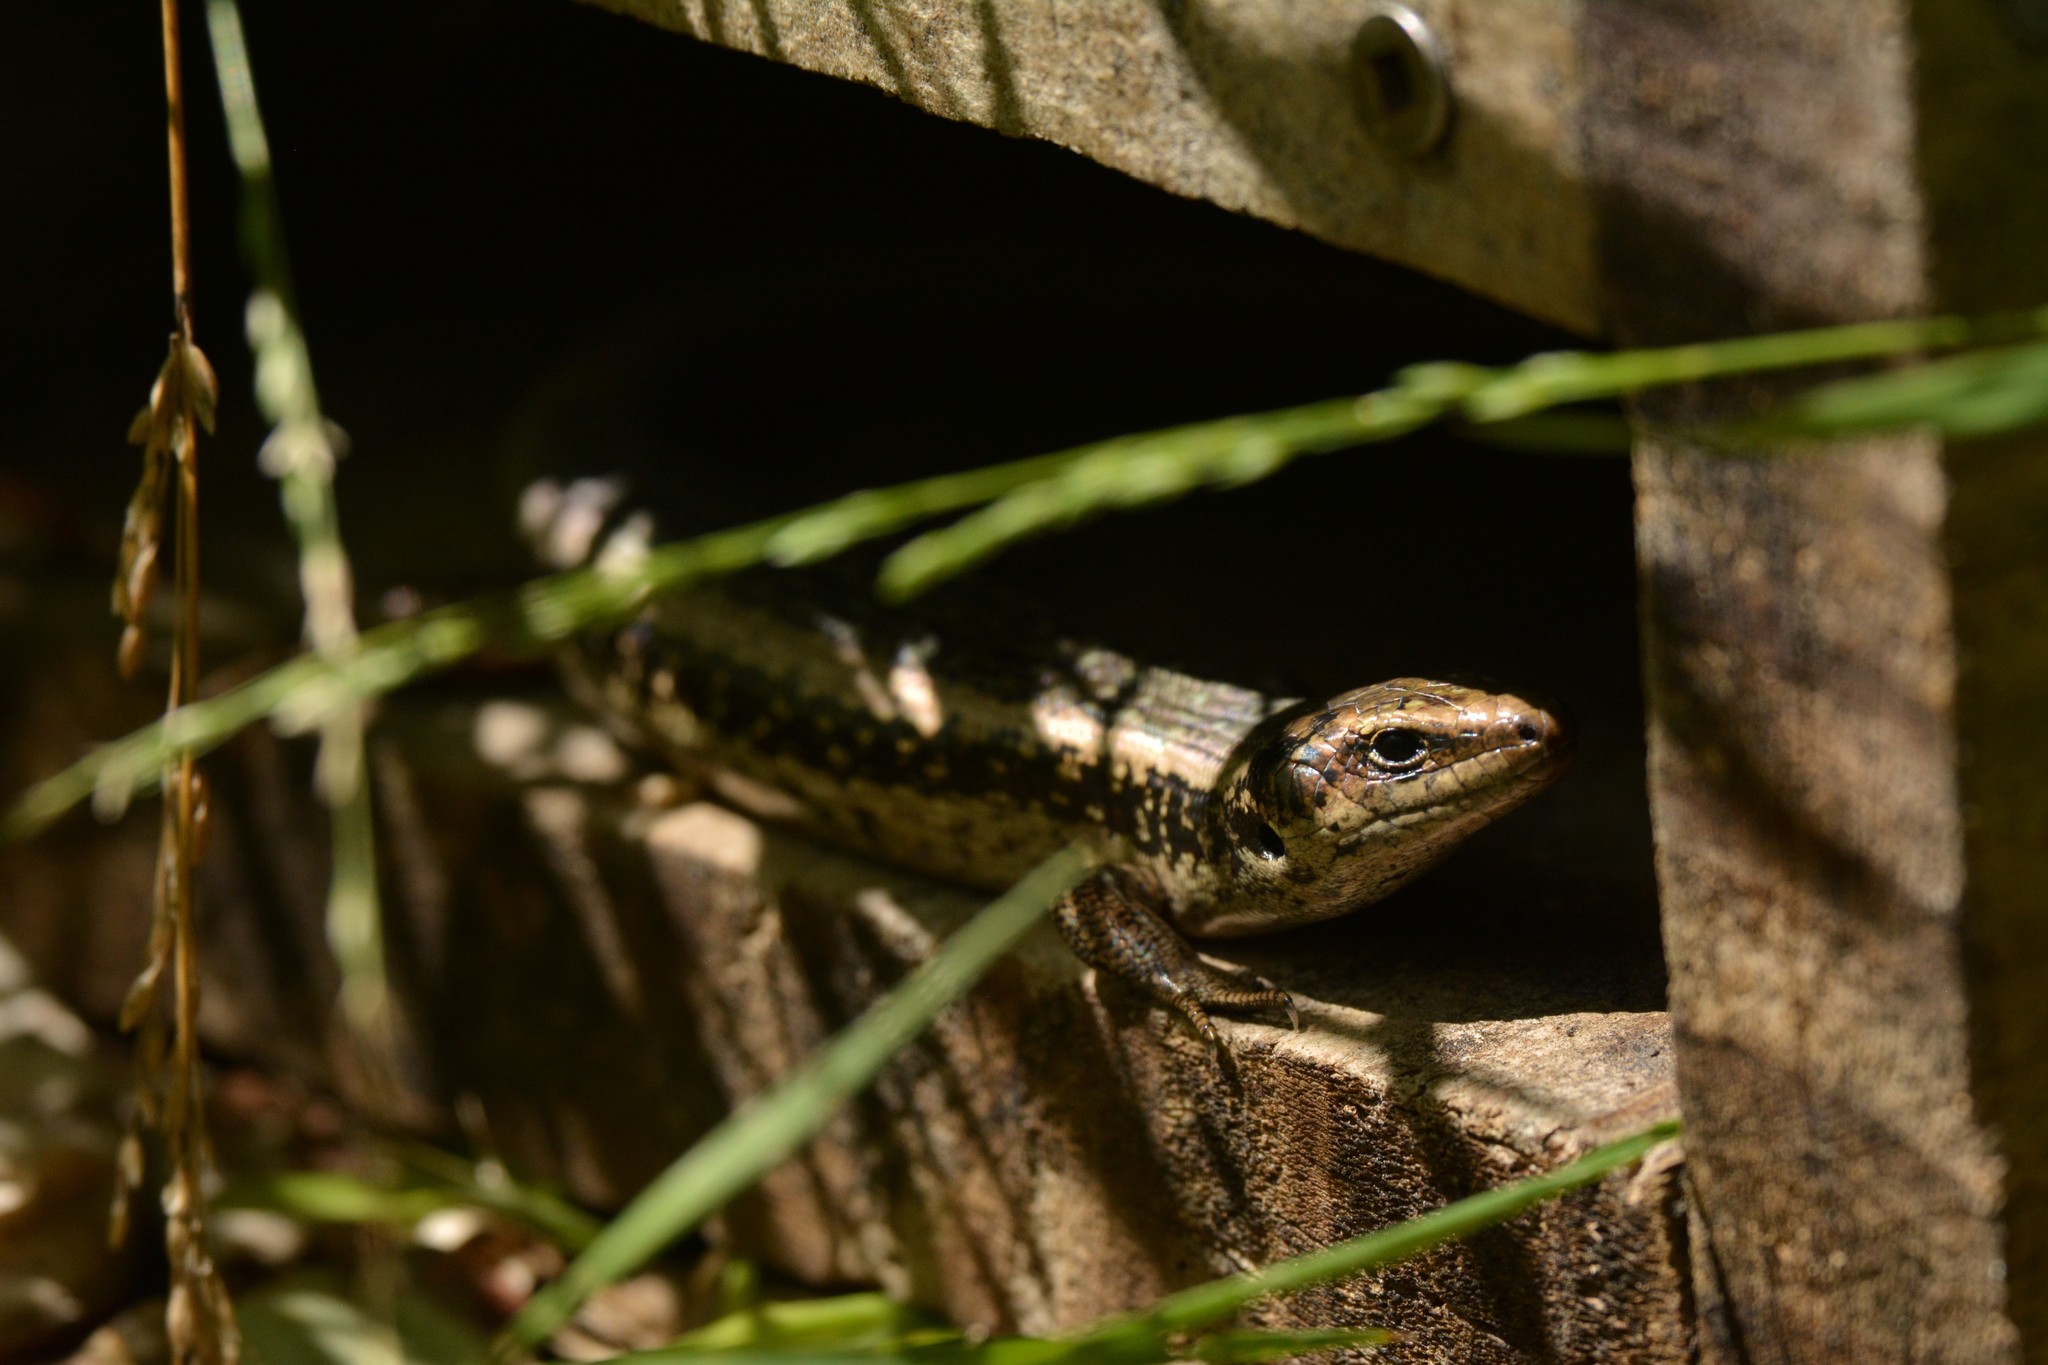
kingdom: Animalia
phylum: Chordata
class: Squamata
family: Scincidae
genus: Oligosoma
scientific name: Oligosoma kokowai
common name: Northern spotted skink
